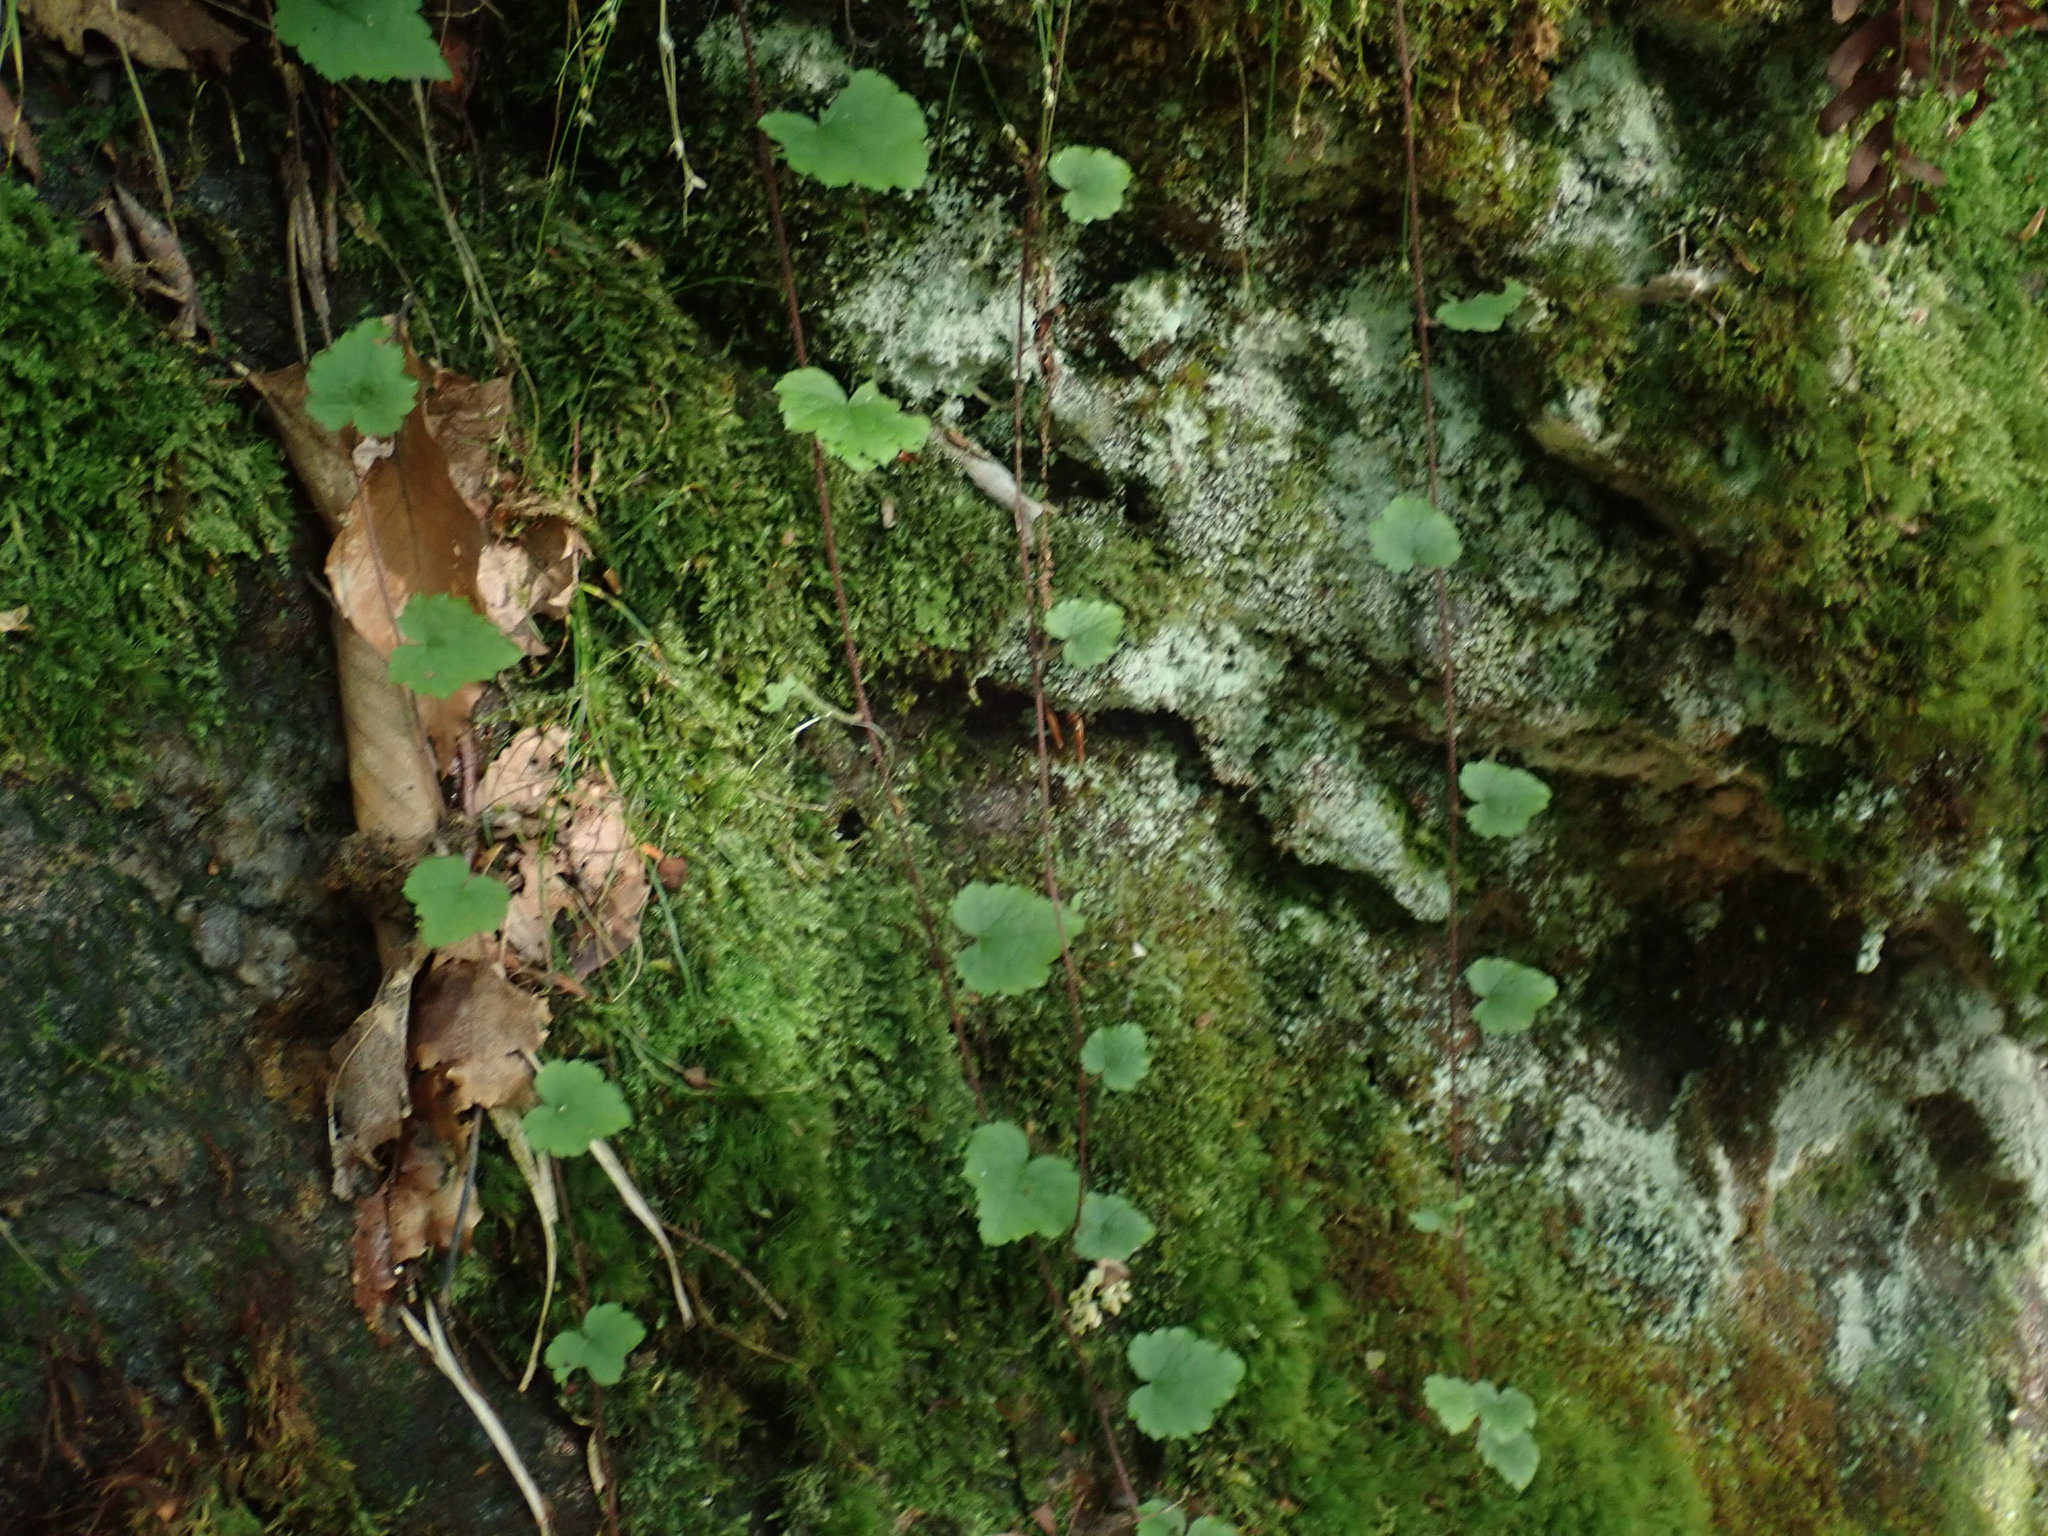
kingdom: Plantae
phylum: Tracheophyta
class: Magnoliopsida
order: Saxifragales
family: Saxifragaceae
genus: Tiarella
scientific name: Tiarella stolonifera
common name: Stoloniferous foamflower
